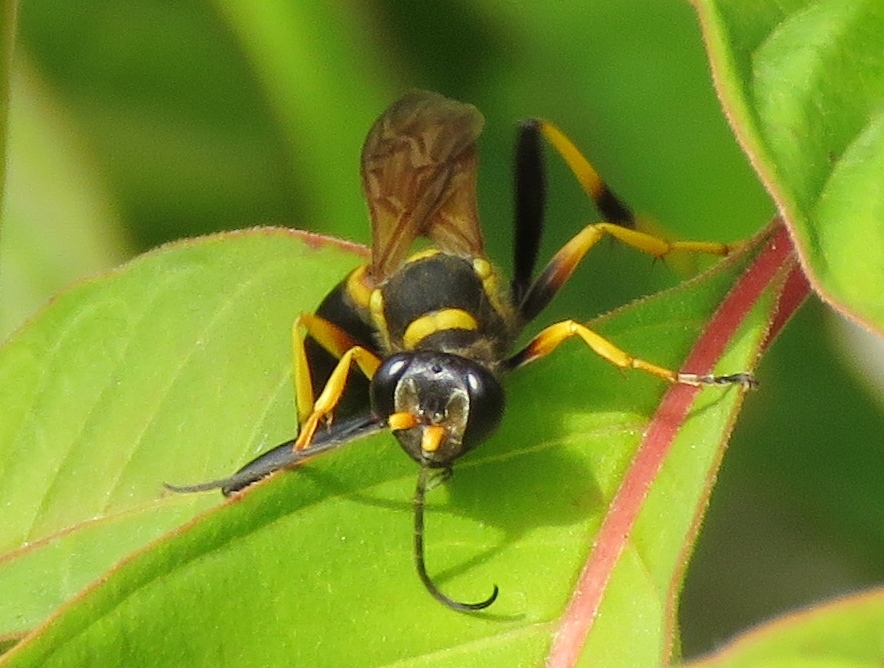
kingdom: Animalia
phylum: Arthropoda
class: Insecta
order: Hymenoptera
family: Sphecidae
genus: Sceliphron
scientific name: Sceliphron caementarium
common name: Mud dauber
